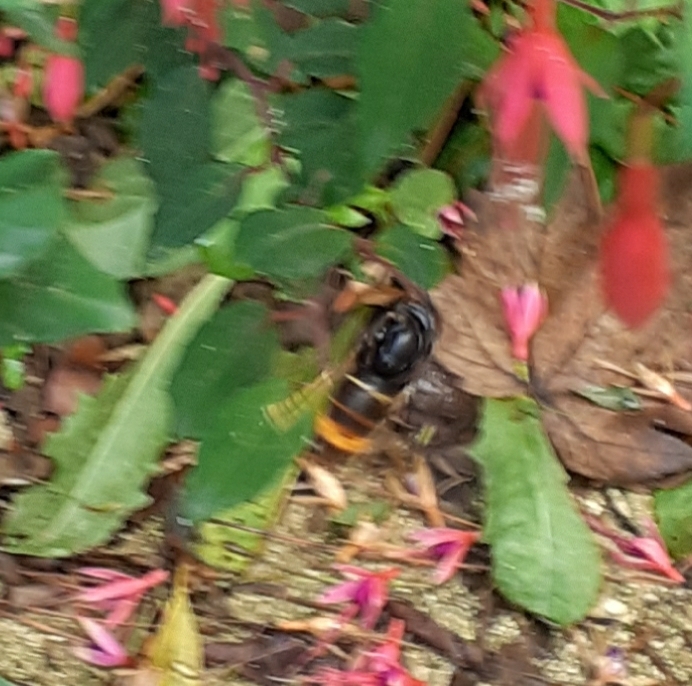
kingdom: Animalia
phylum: Arthropoda
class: Insecta
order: Hymenoptera
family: Vespidae
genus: Vespa
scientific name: Vespa velutina
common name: Asian hornet
